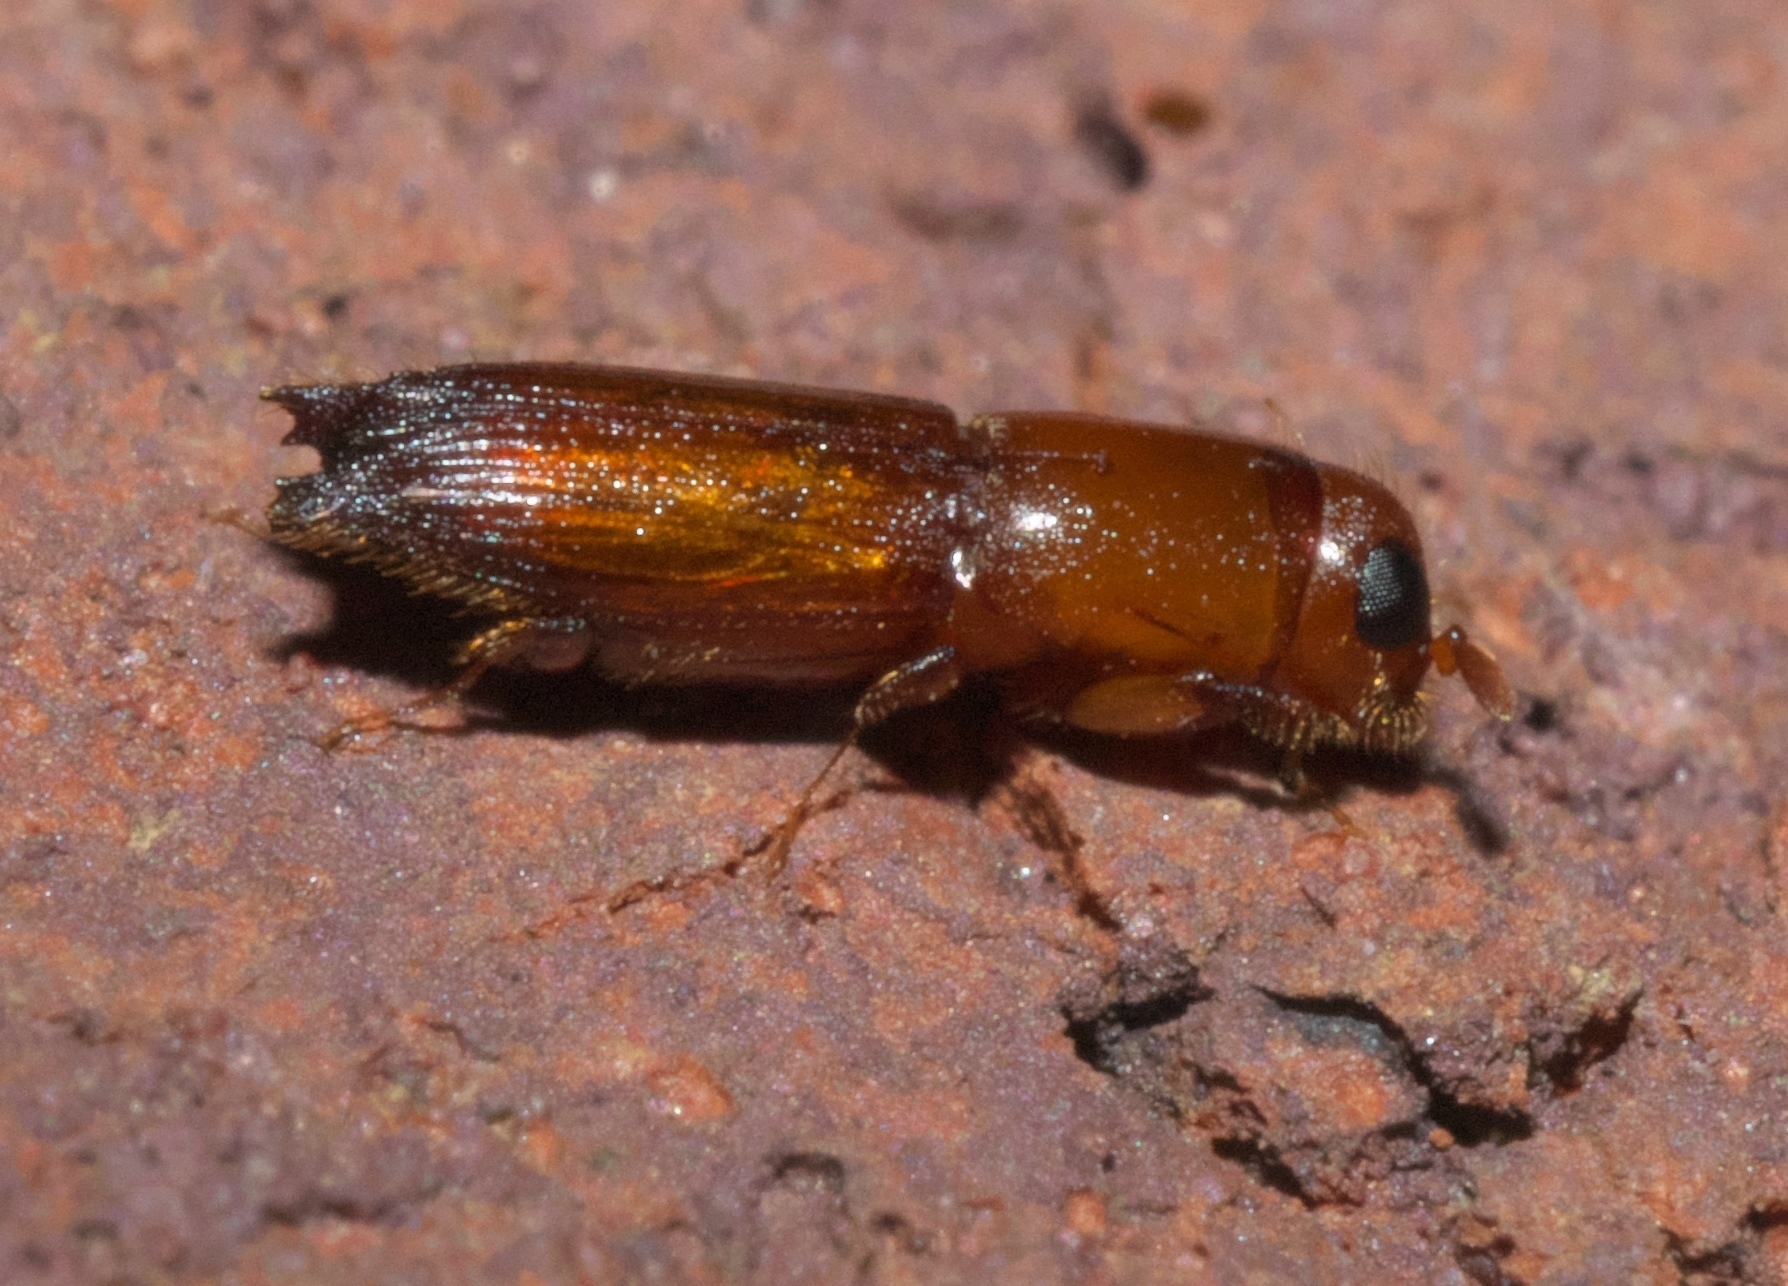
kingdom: Animalia
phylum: Arthropoda
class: Insecta
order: Coleoptera
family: Curculionidae
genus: Euplatypus
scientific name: Euplatypus compositus
